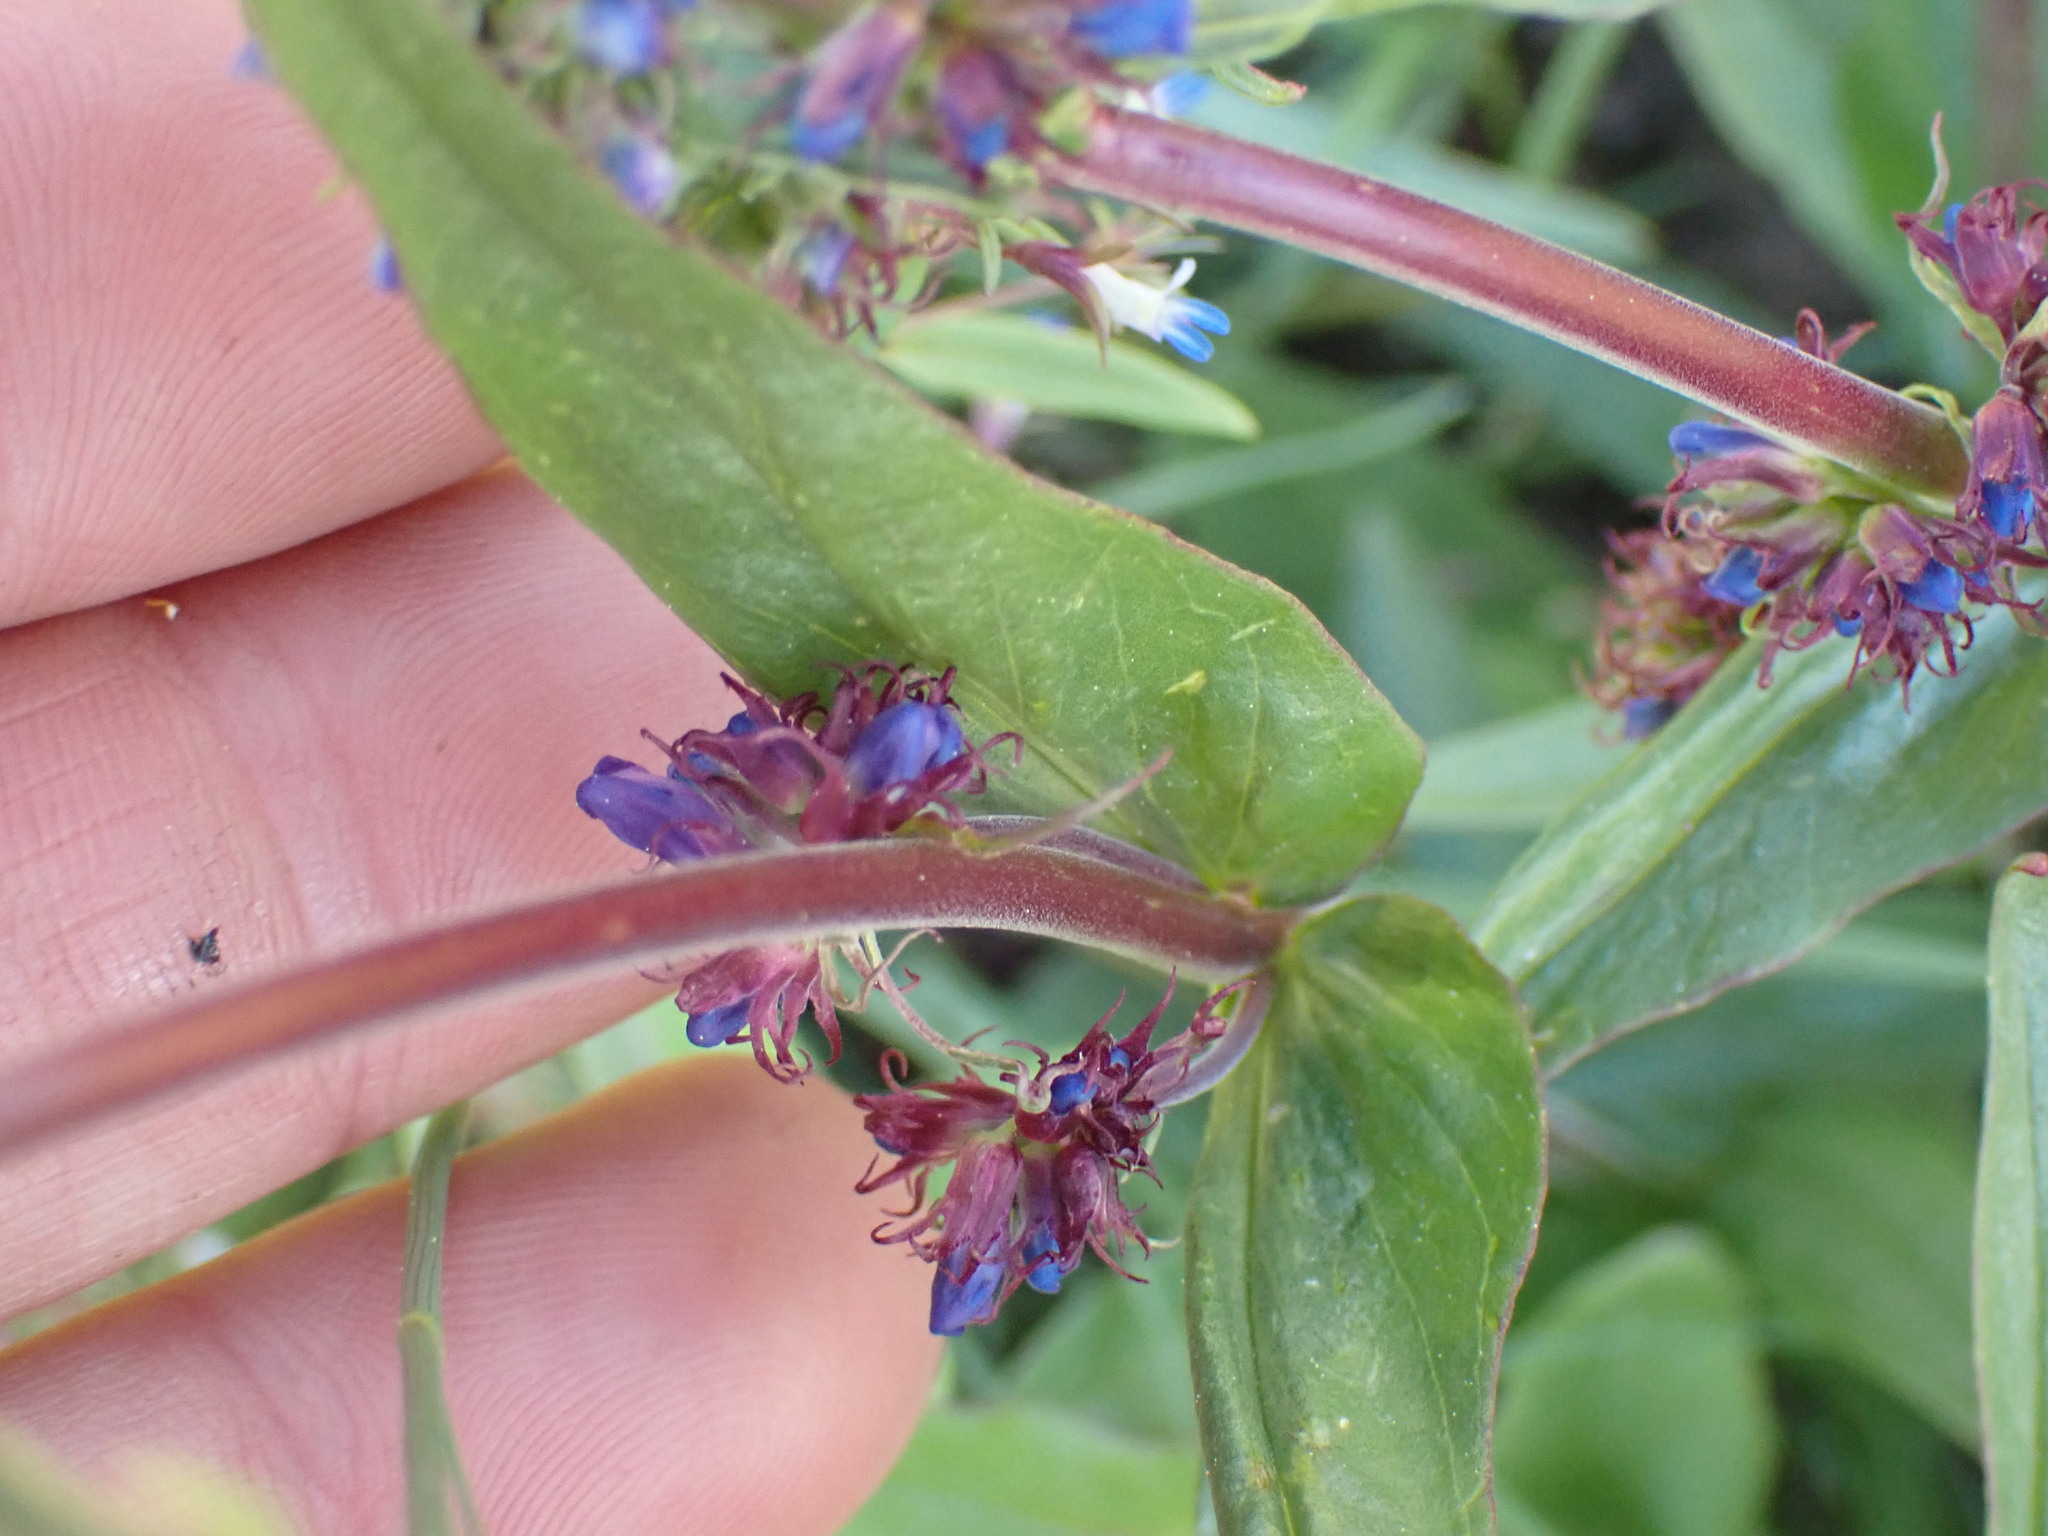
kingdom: Plantae
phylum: Tracheophyta
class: Magnoliopsida
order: Lamiales
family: Plantaginaceae
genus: Penstemon
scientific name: Penstemon procerus
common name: Small-flower penstemon
